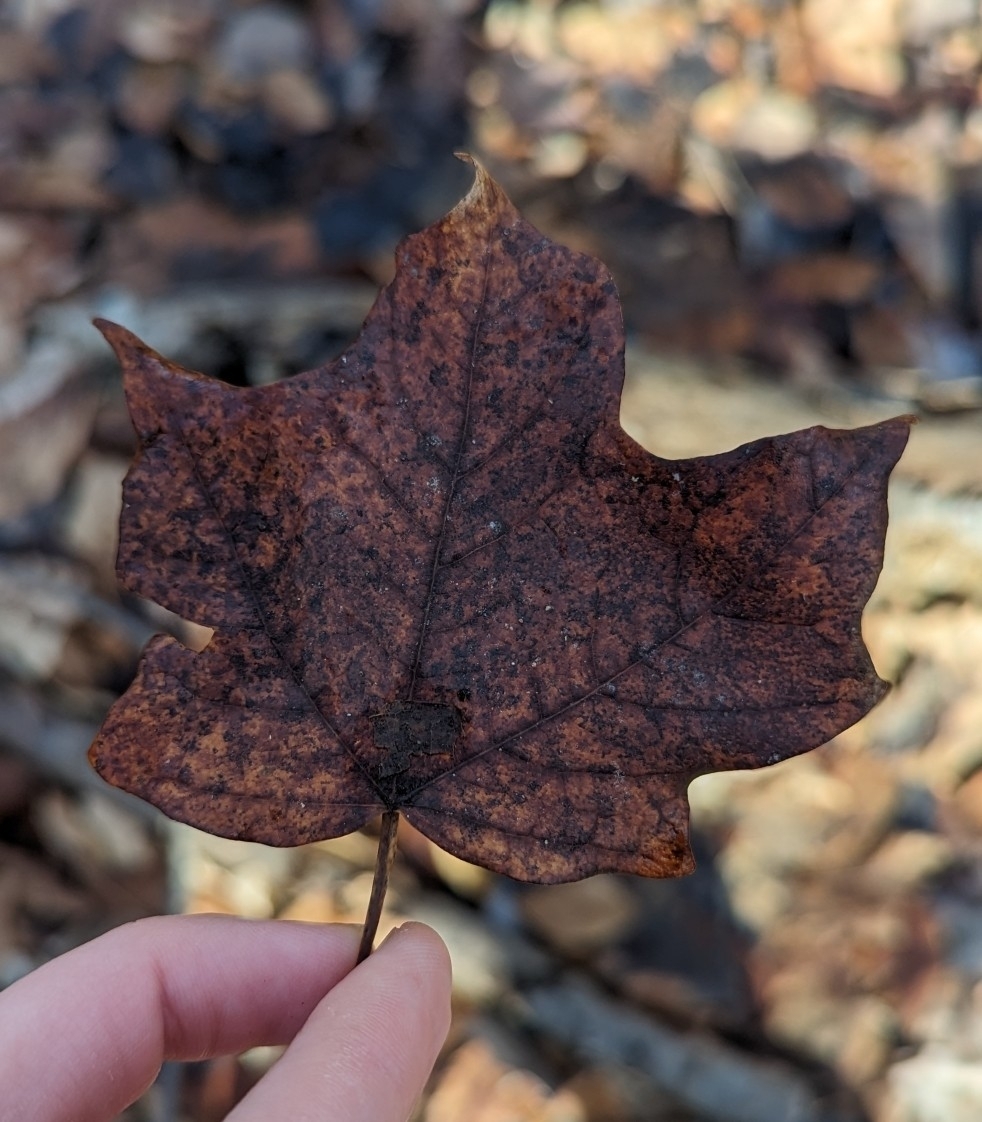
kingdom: Plantae
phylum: Tracheophyta
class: Magnoliopsida
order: Sapindales
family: Sapindaceae
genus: Acer
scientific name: Acer saccharum
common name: Sugar maple
